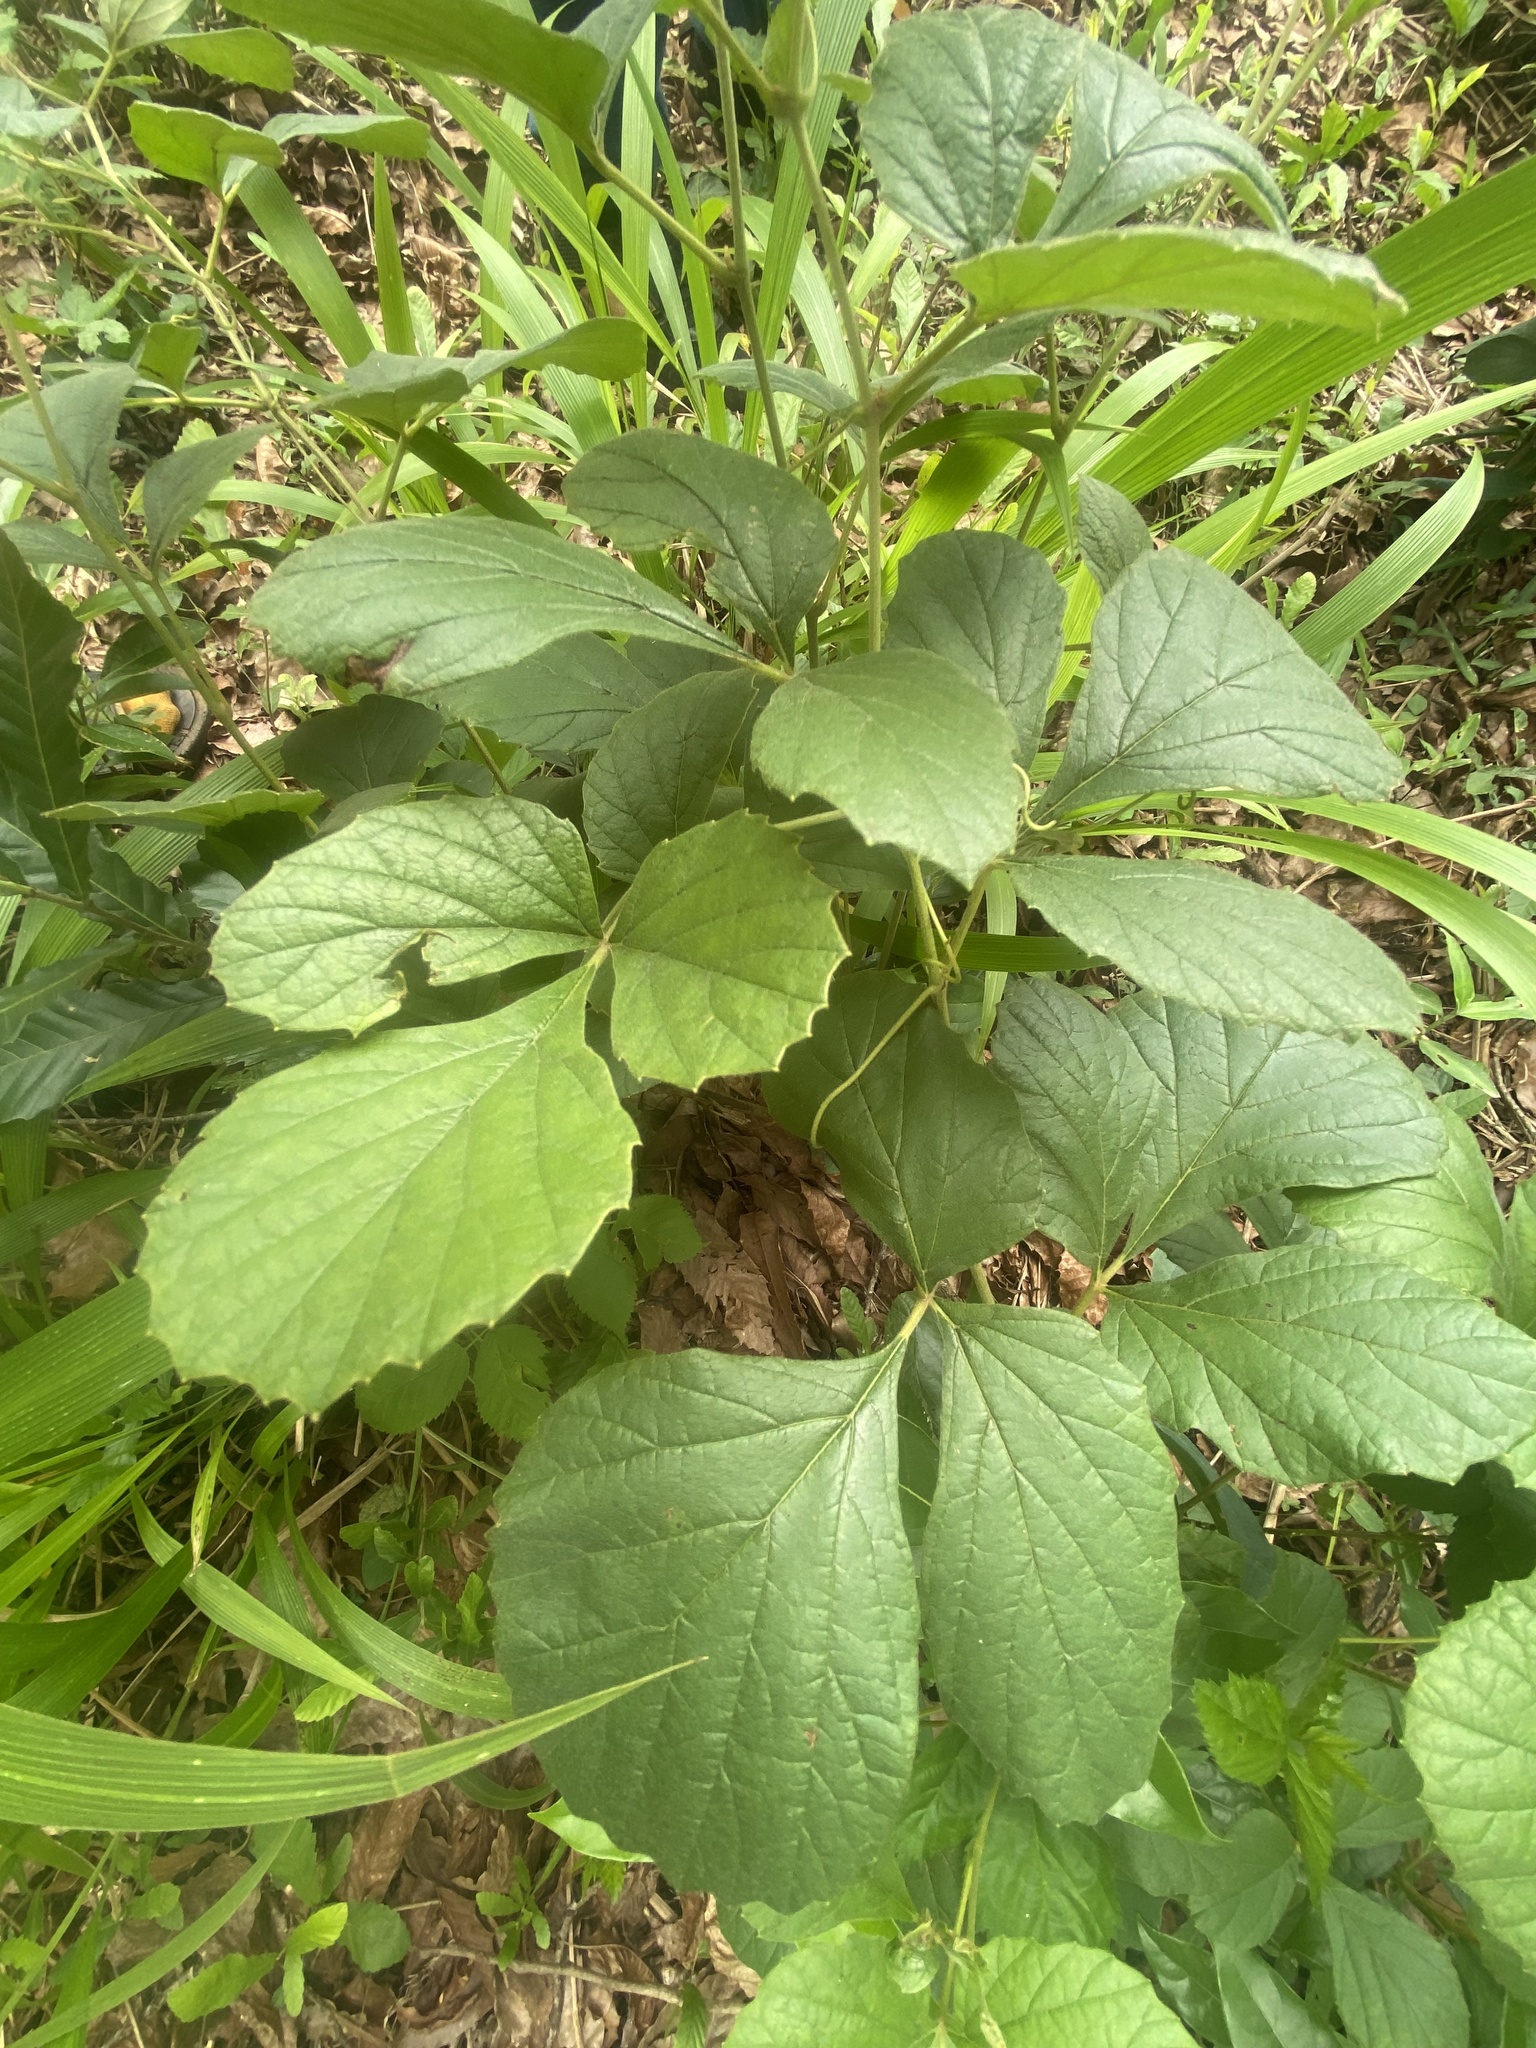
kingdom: Plantae
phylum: Tracheophyta
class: Magnoliopsida
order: Vitales
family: Vitaceae
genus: Rhoicissus
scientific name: Rhoicissus tridentata
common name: Common forest grape
